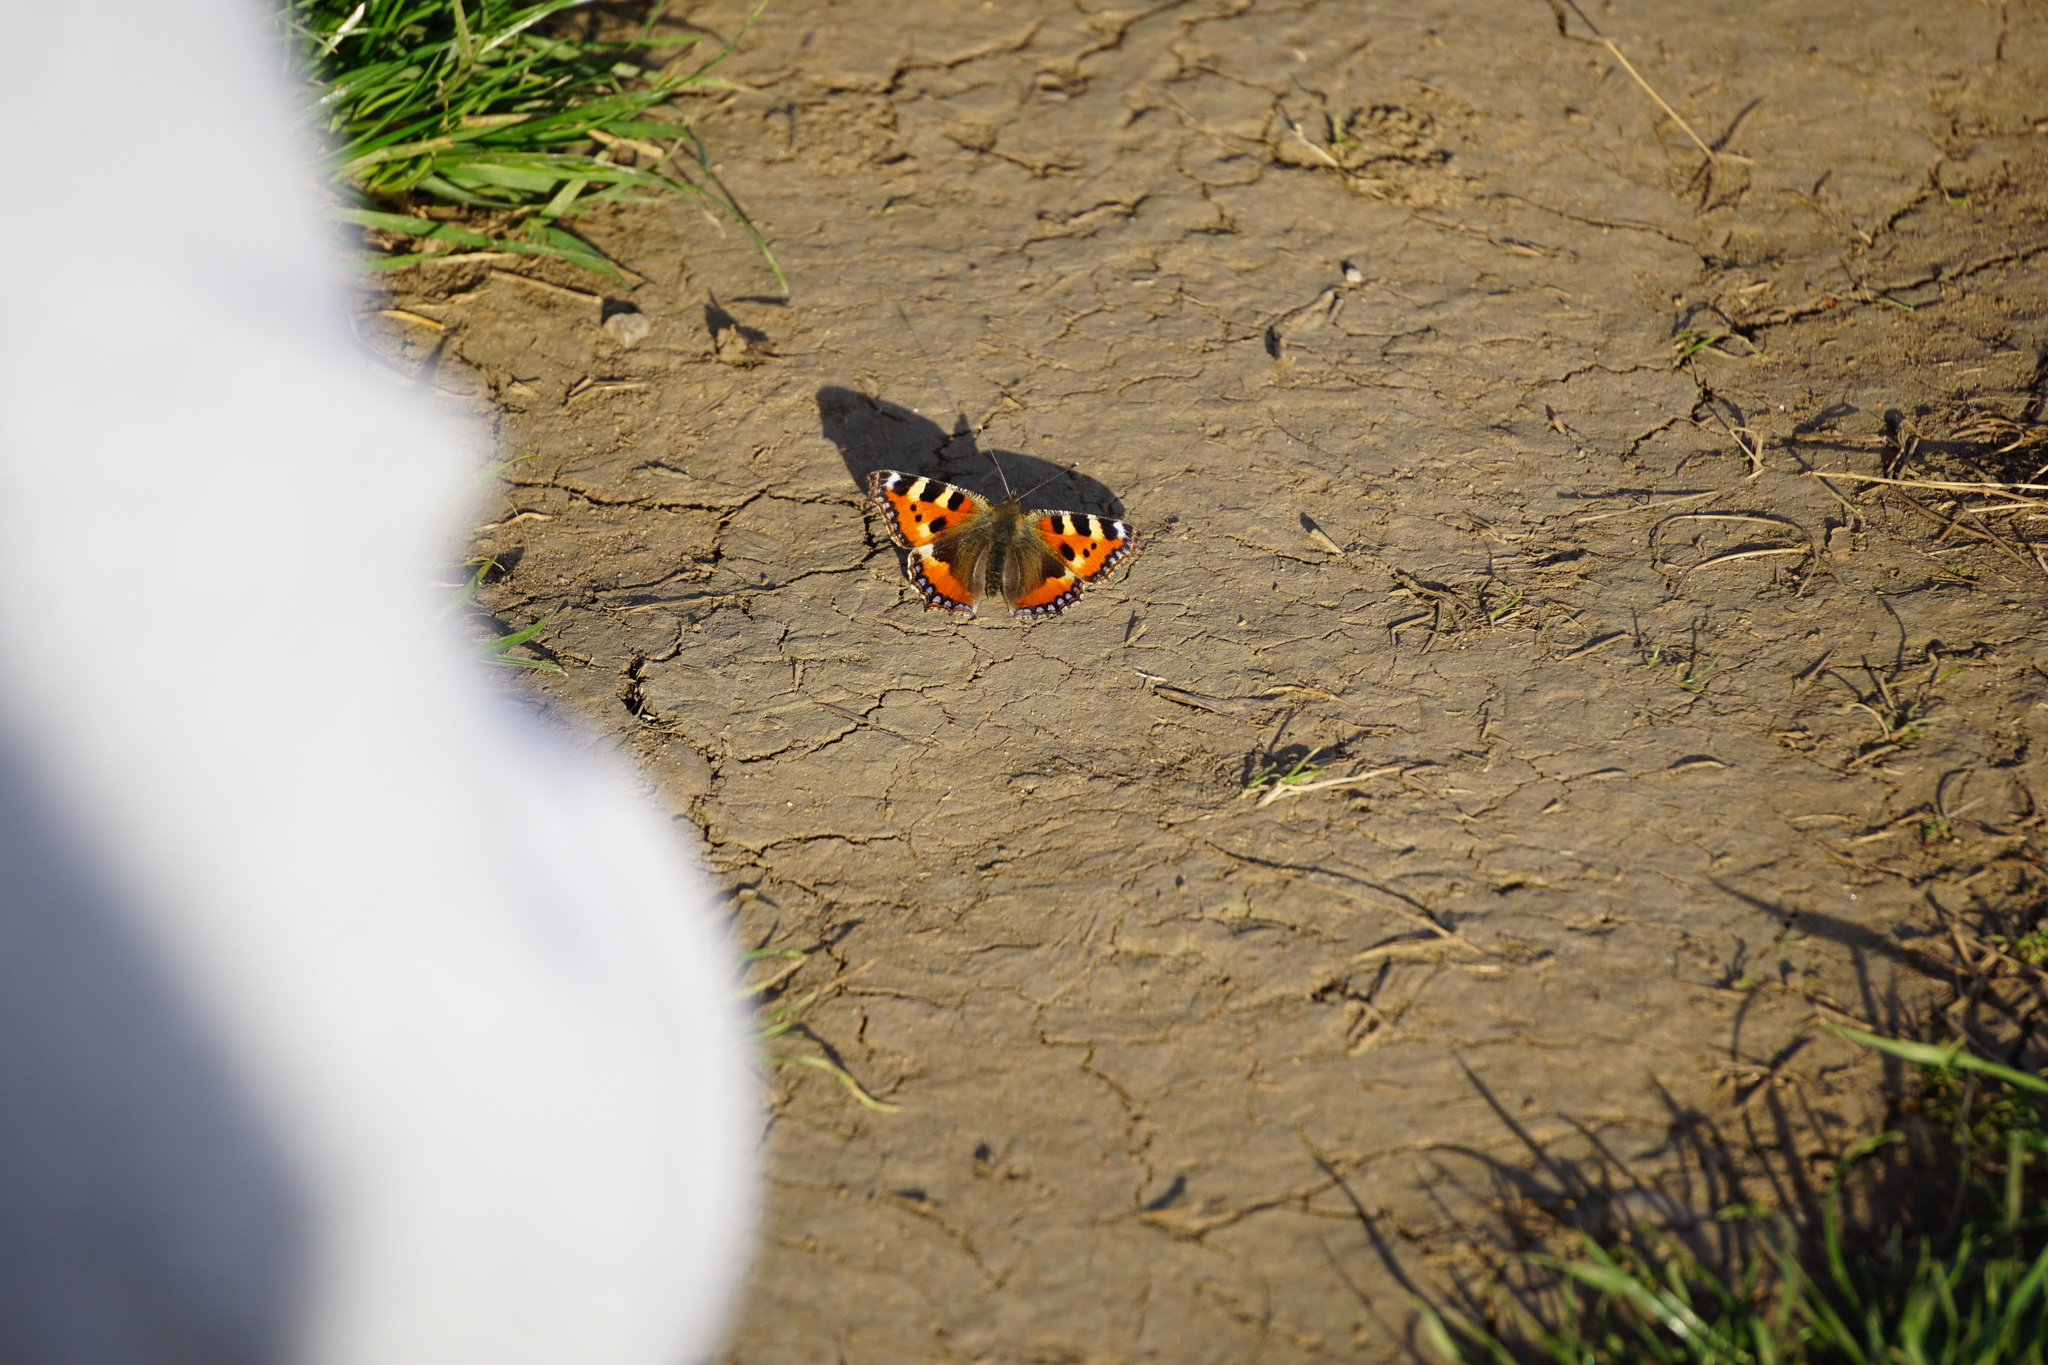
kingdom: Animalia
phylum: Arthropoda
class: Insecta
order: Lepidoptera
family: Nymphalidae
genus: Aglais
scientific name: Aglais urticae
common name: Small tortoiseshell
